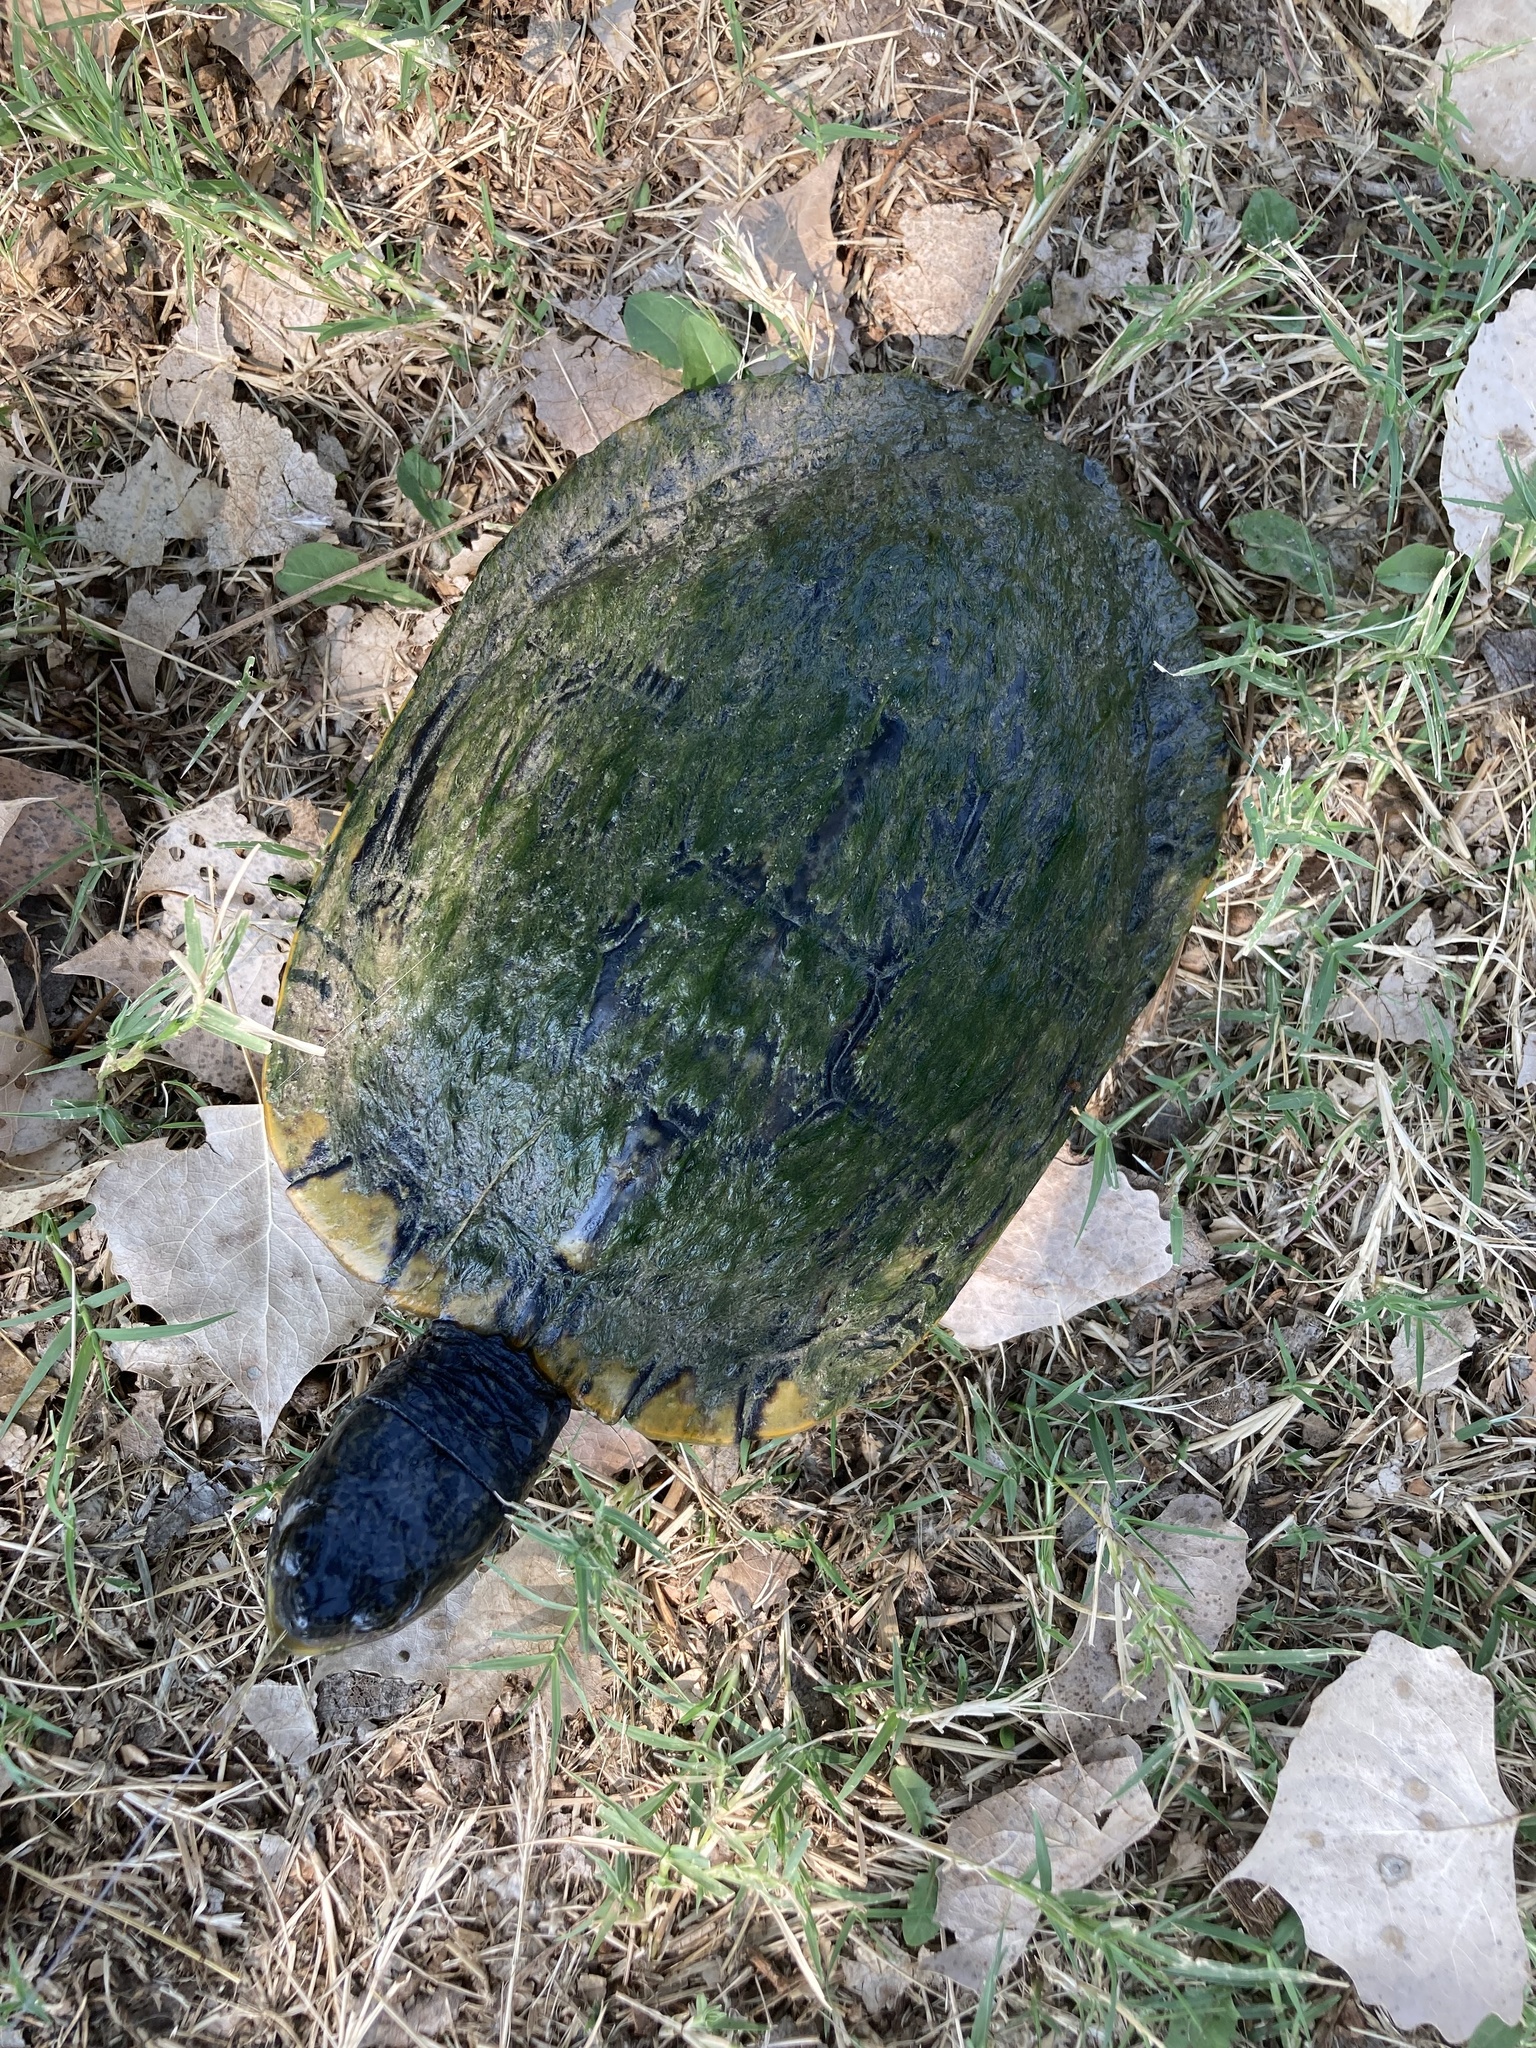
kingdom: Animalia
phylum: Chordata
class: Testudines
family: Emydidae
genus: Trachemys
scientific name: Trachemys scripta
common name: Slider
